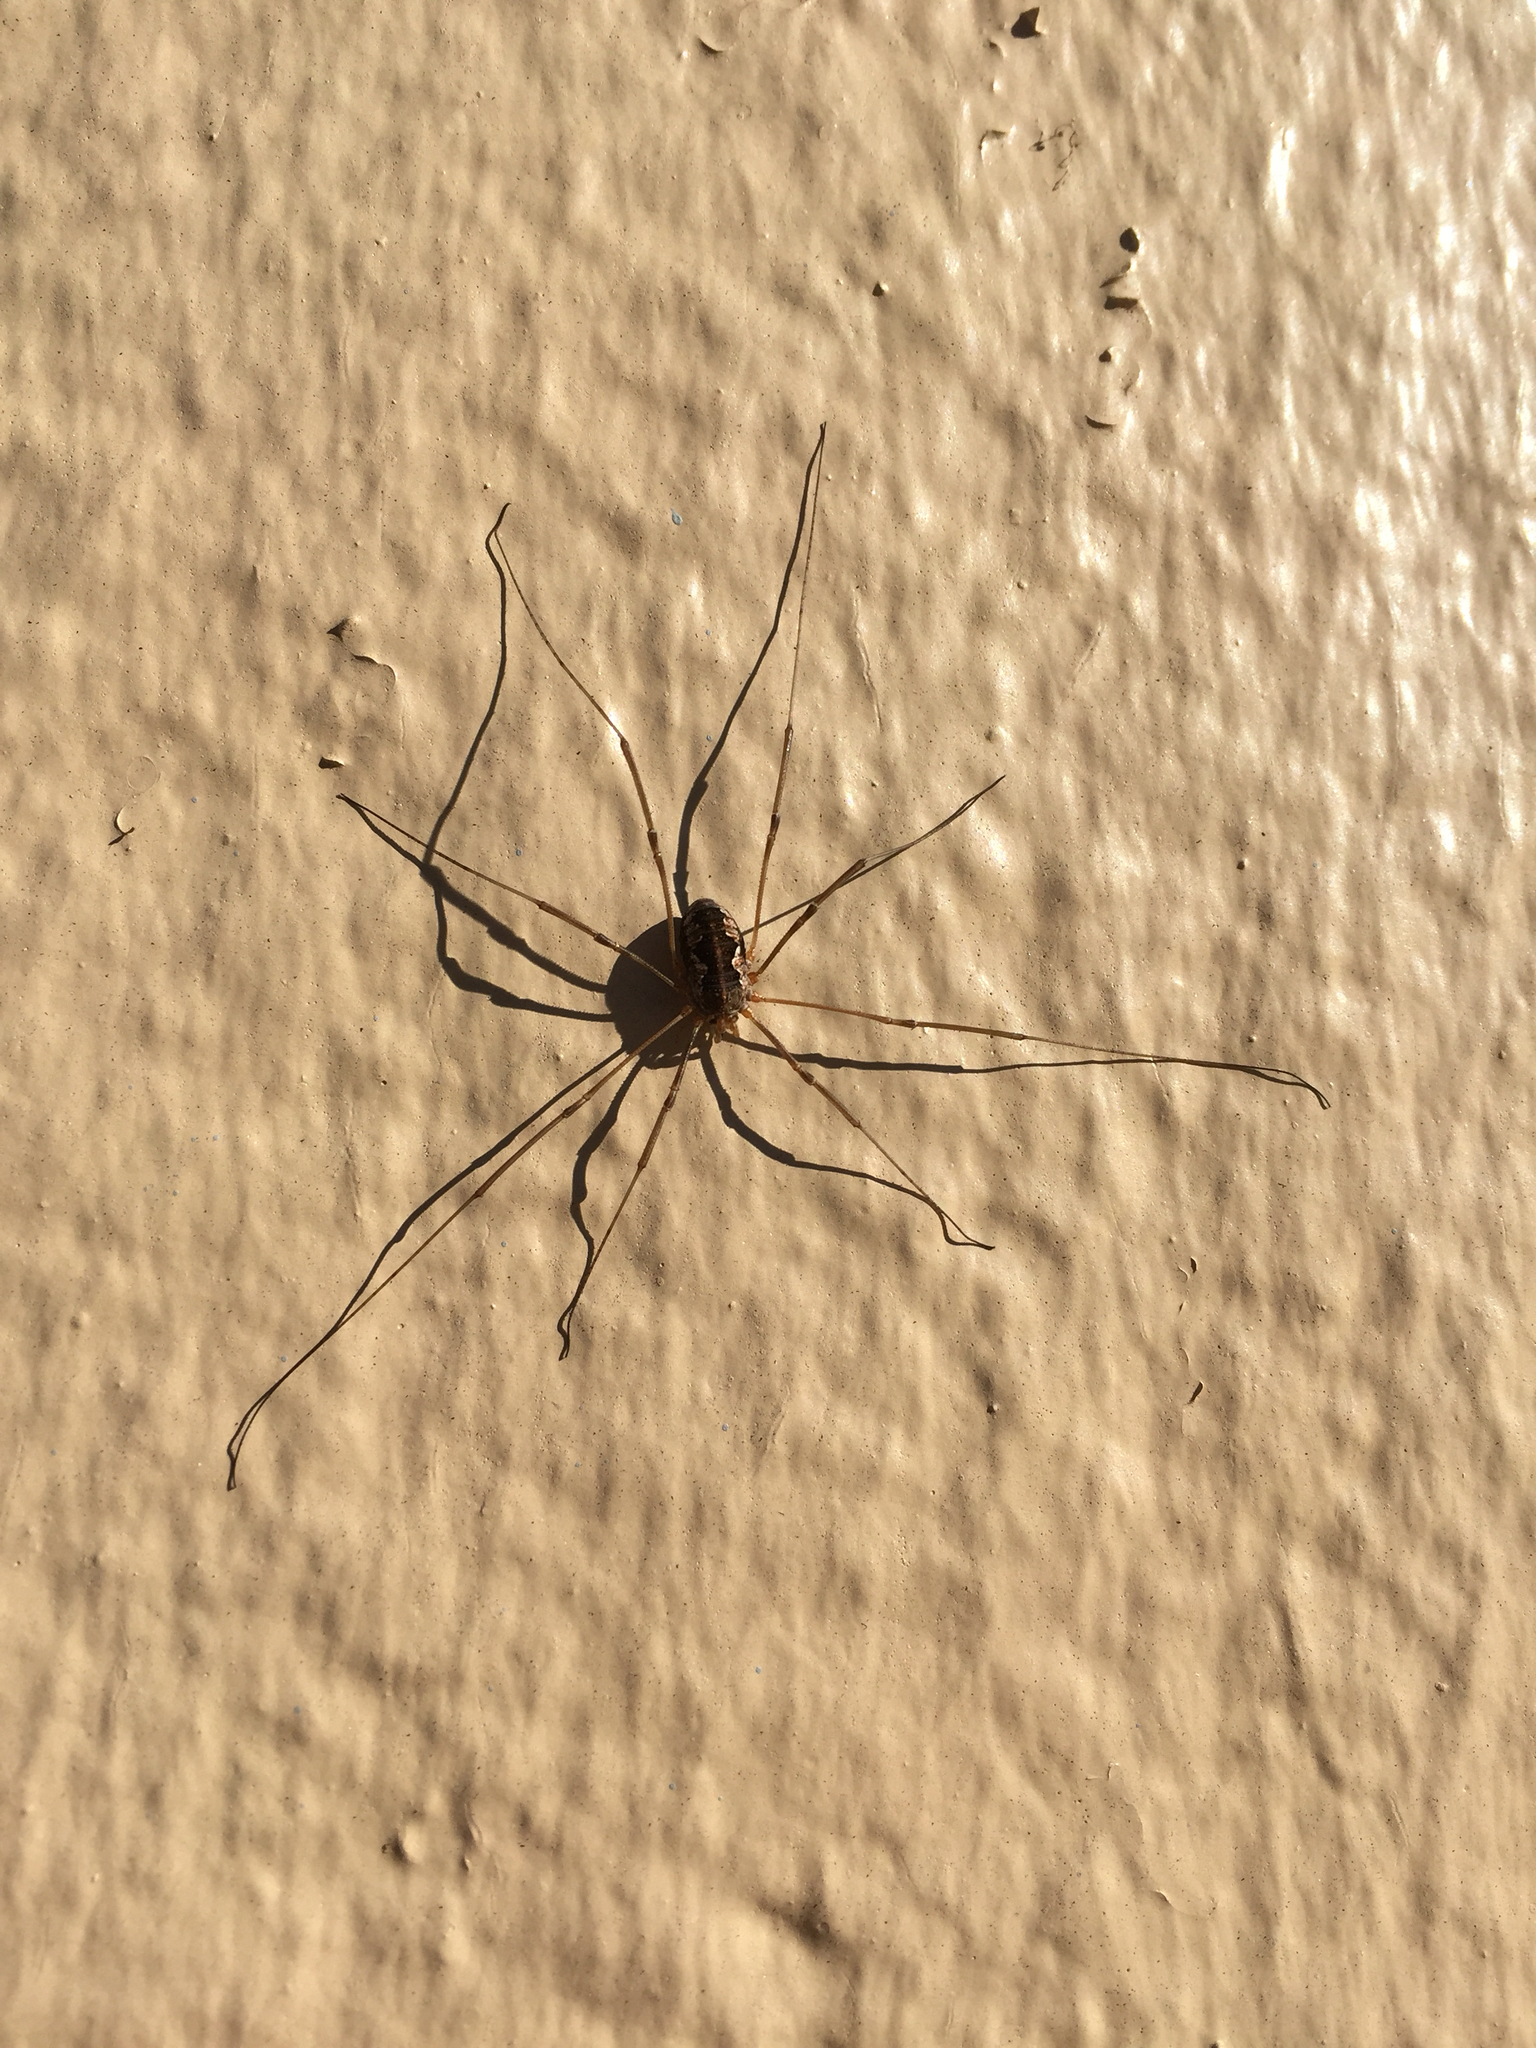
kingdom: Animalia
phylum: Arthropoda
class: Arachnida
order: Opiliones
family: Phalangiidae
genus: Phalangium
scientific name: Phalangium opilio
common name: Daddy longleg
